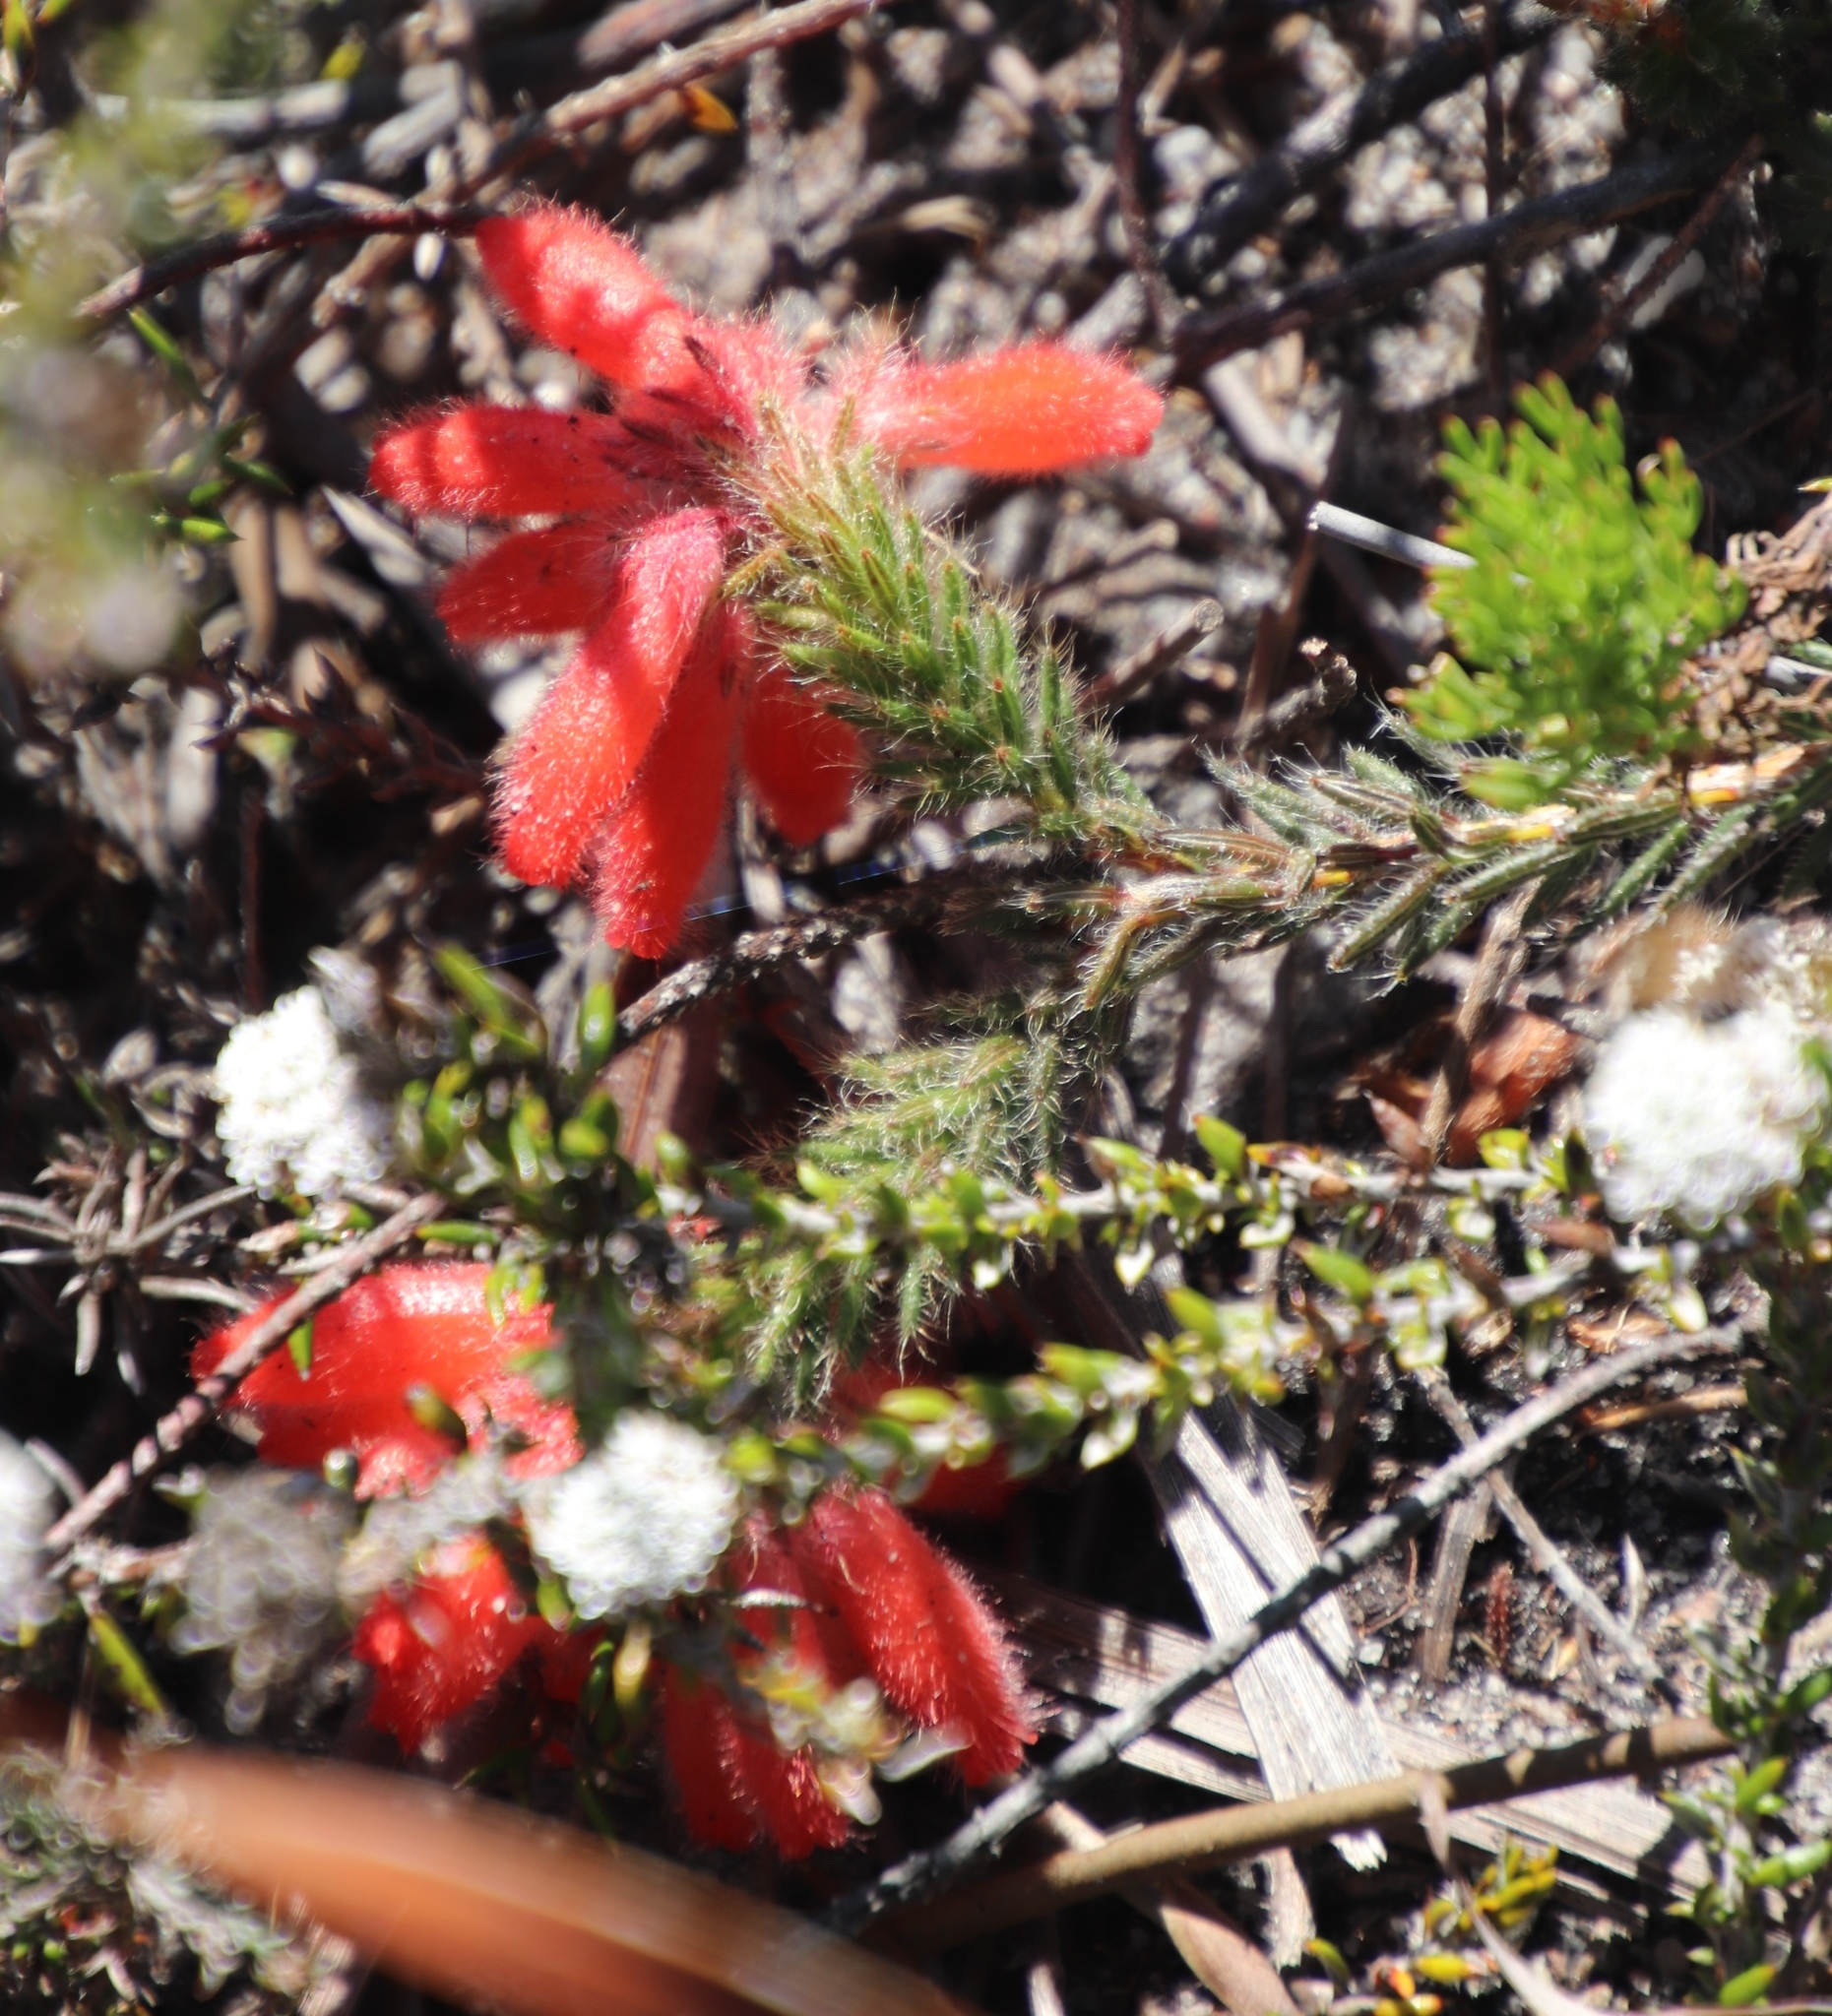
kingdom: Plantae
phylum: Tracheophyta
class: Magnoliopsida
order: Ericales
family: Ericaceae
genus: Erica
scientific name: Erica cerinthoides
